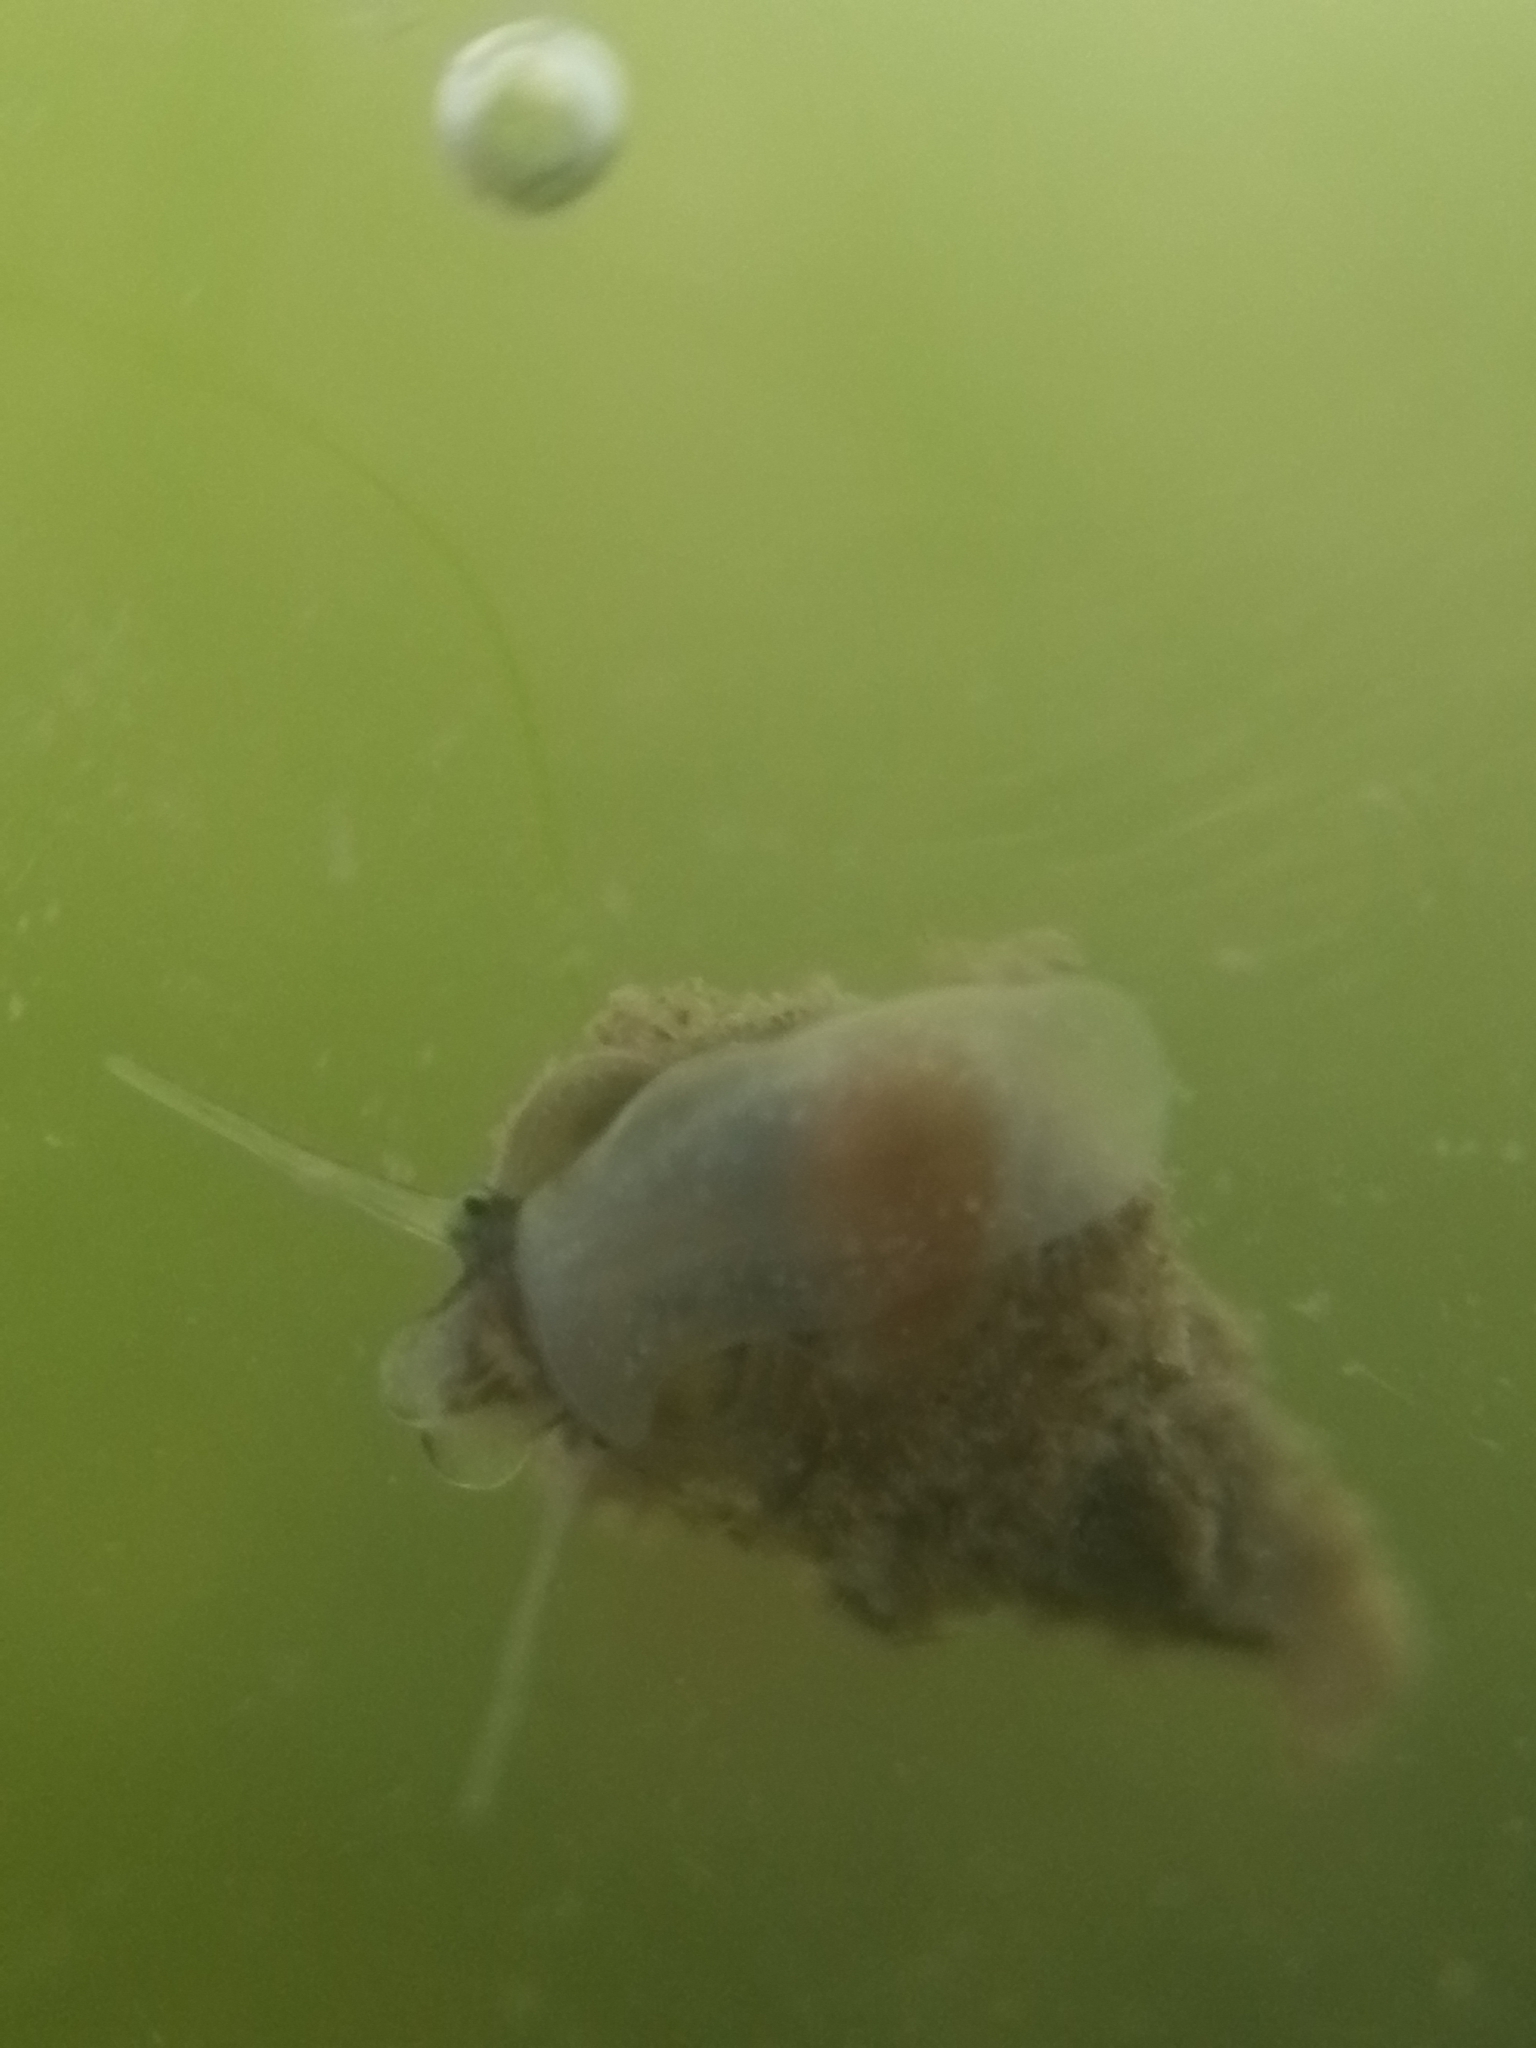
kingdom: Animalia
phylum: Mollusca
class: Gastropoda
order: Littorinimorpha
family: Tateidae
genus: Potamopyrgus
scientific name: Potamopyrgus antipodarum
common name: Jenkins' spire snail
